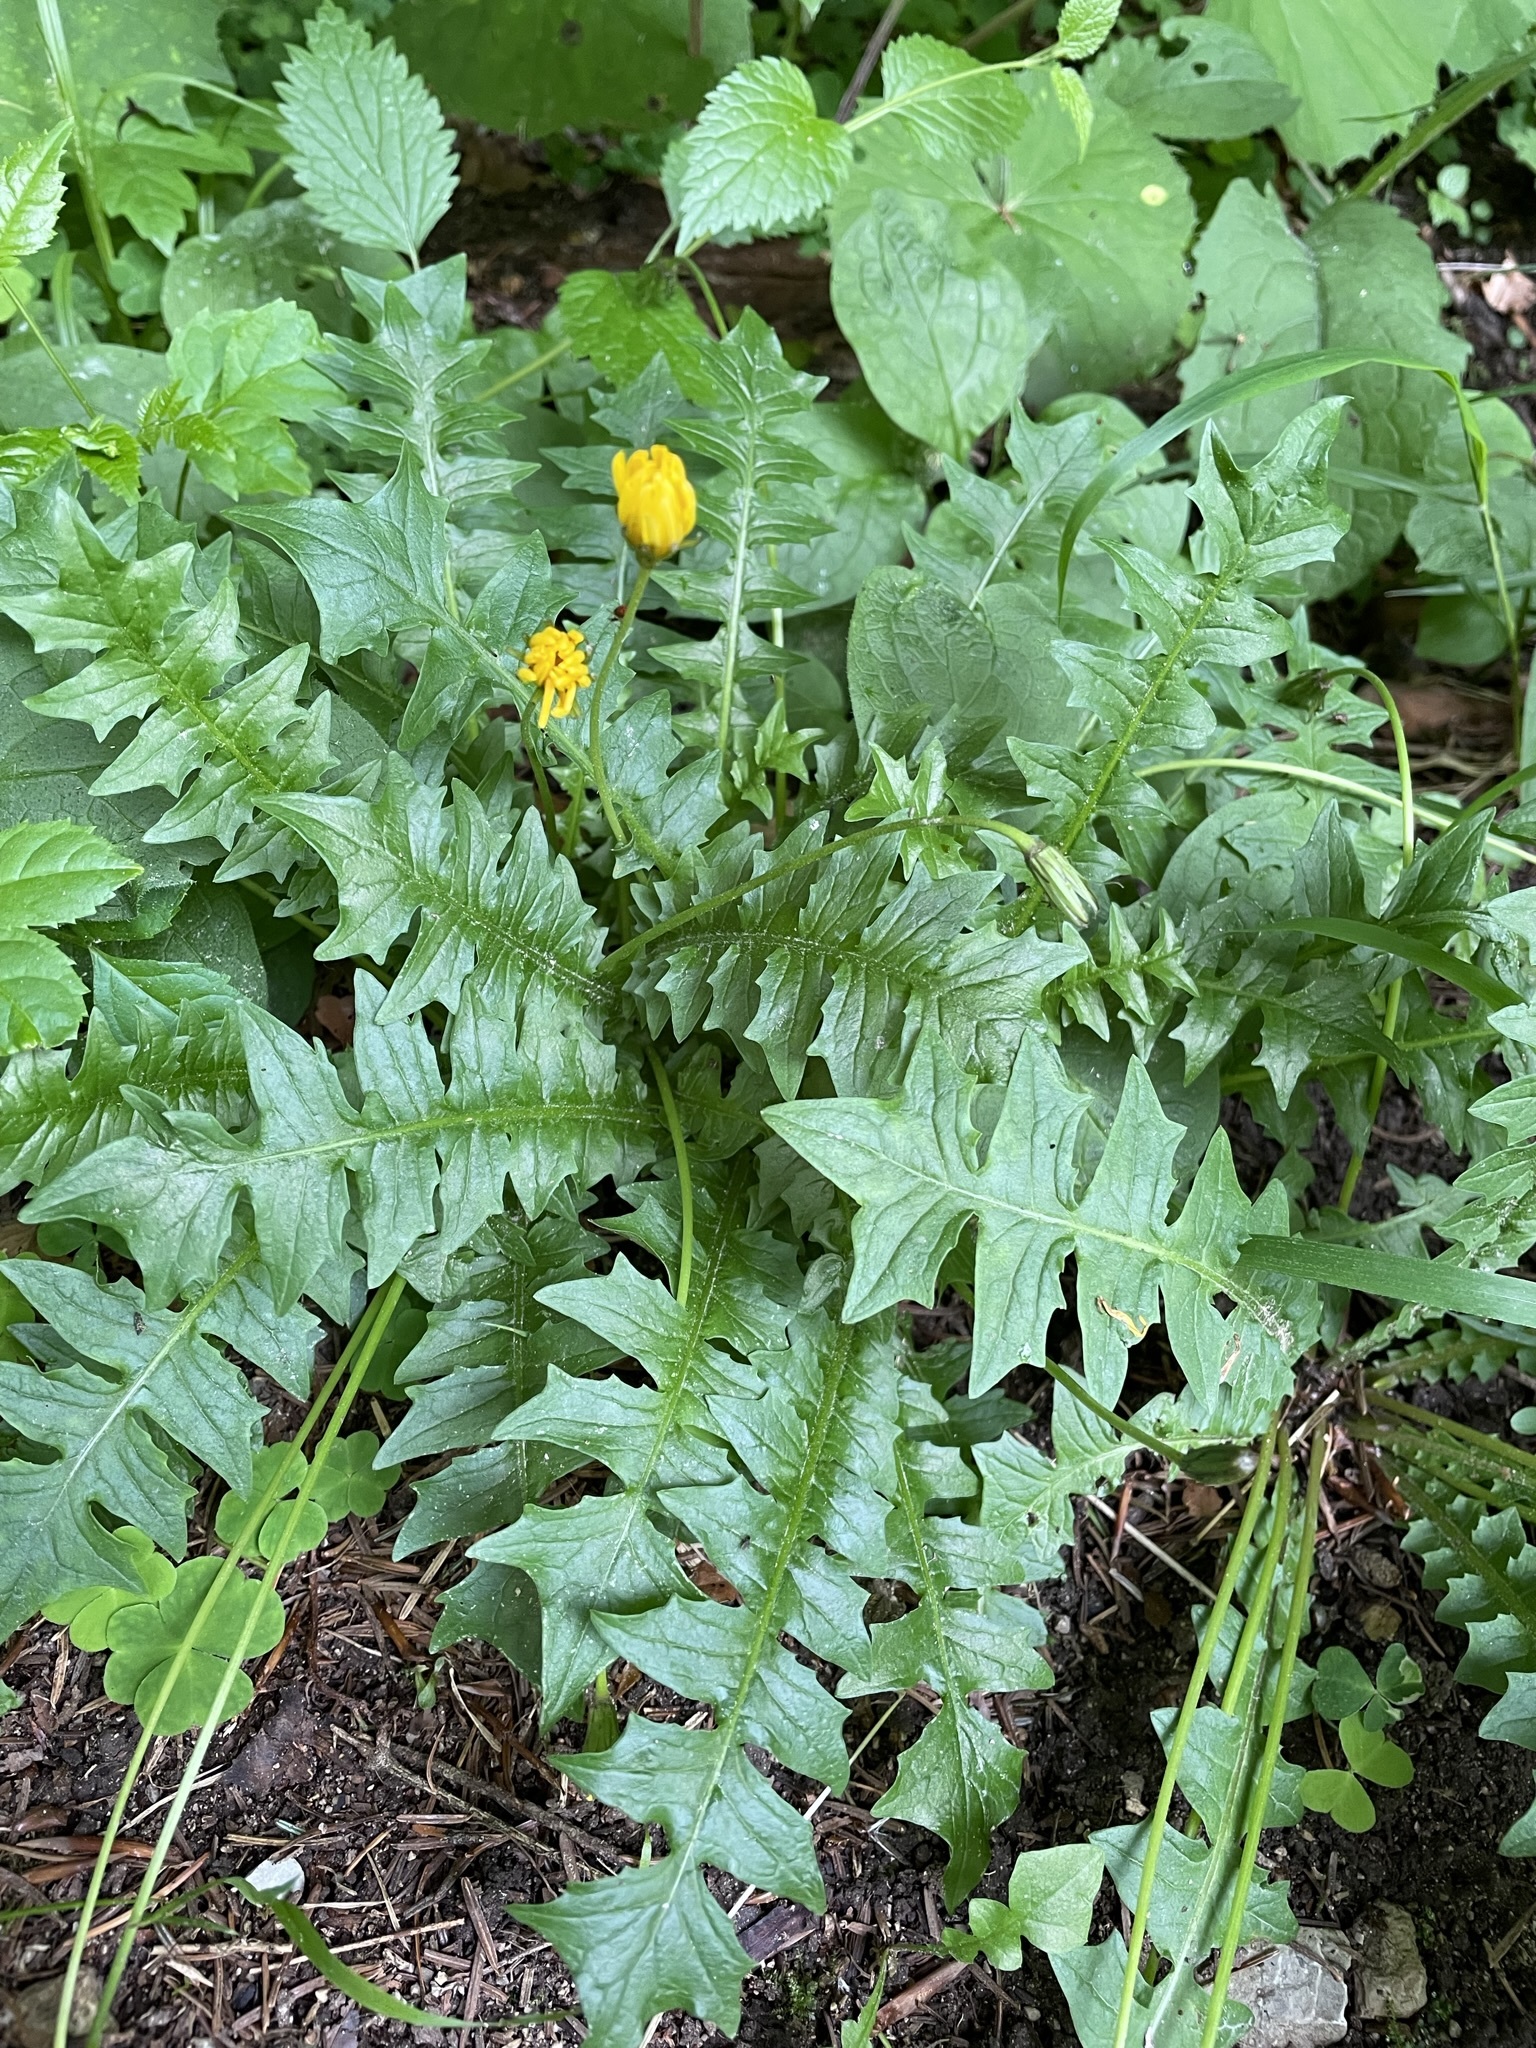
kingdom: Plantae
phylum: Tracheophyta
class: Magnoliopsida
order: Asterales
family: Asteraceae
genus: Aposeris
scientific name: Aposeris foetida
